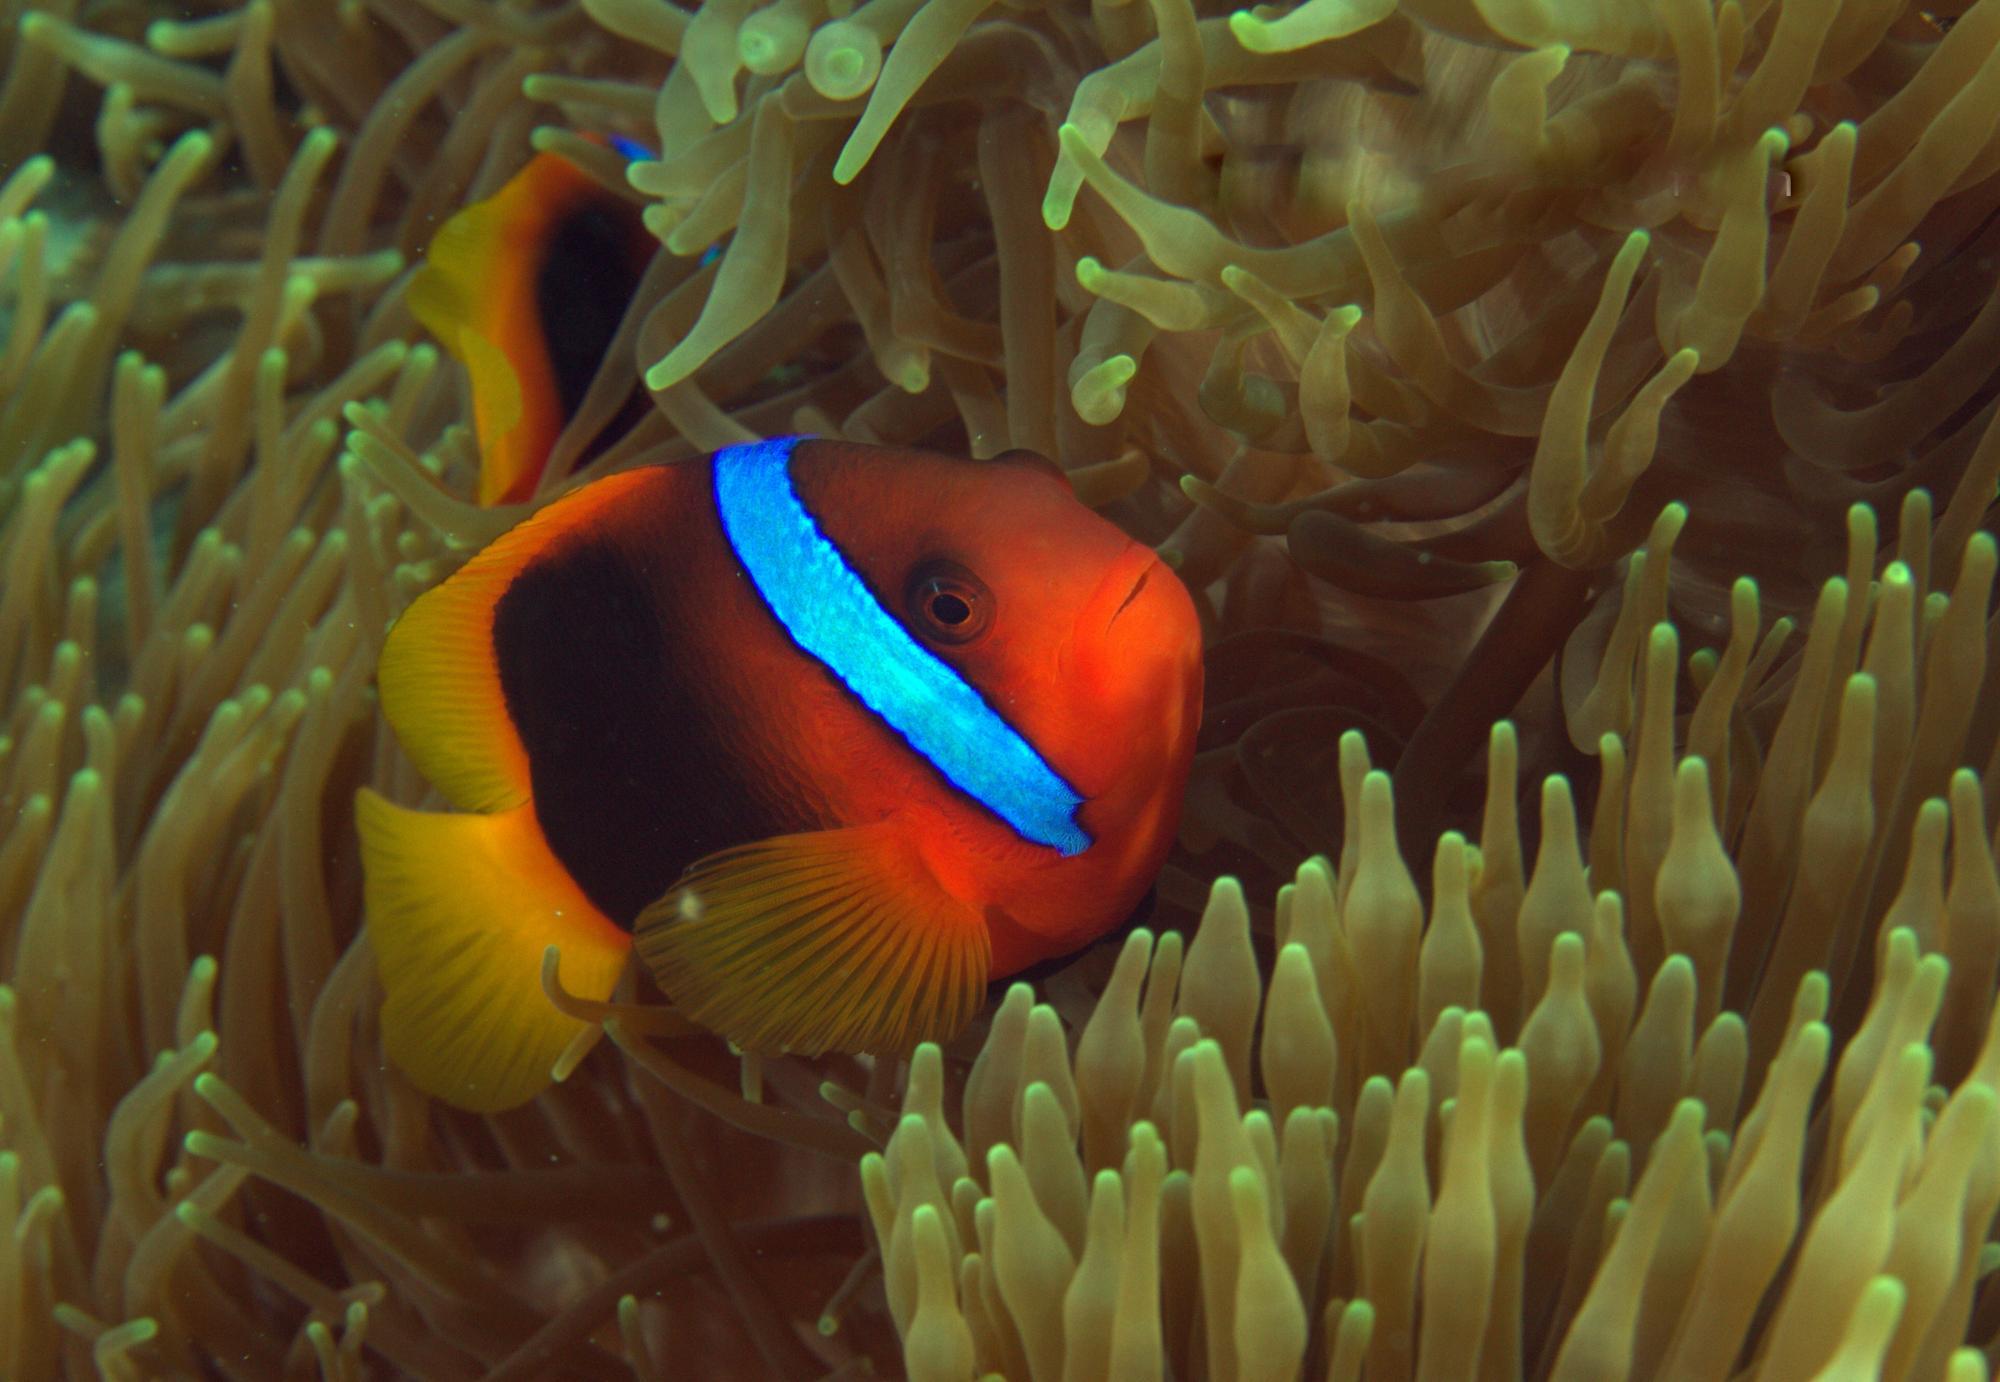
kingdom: Animalia
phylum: Chordata
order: Perciformes
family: Pomacentridae
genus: Amphiprion
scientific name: Amphiprion melanopus
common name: Black anemonefish
